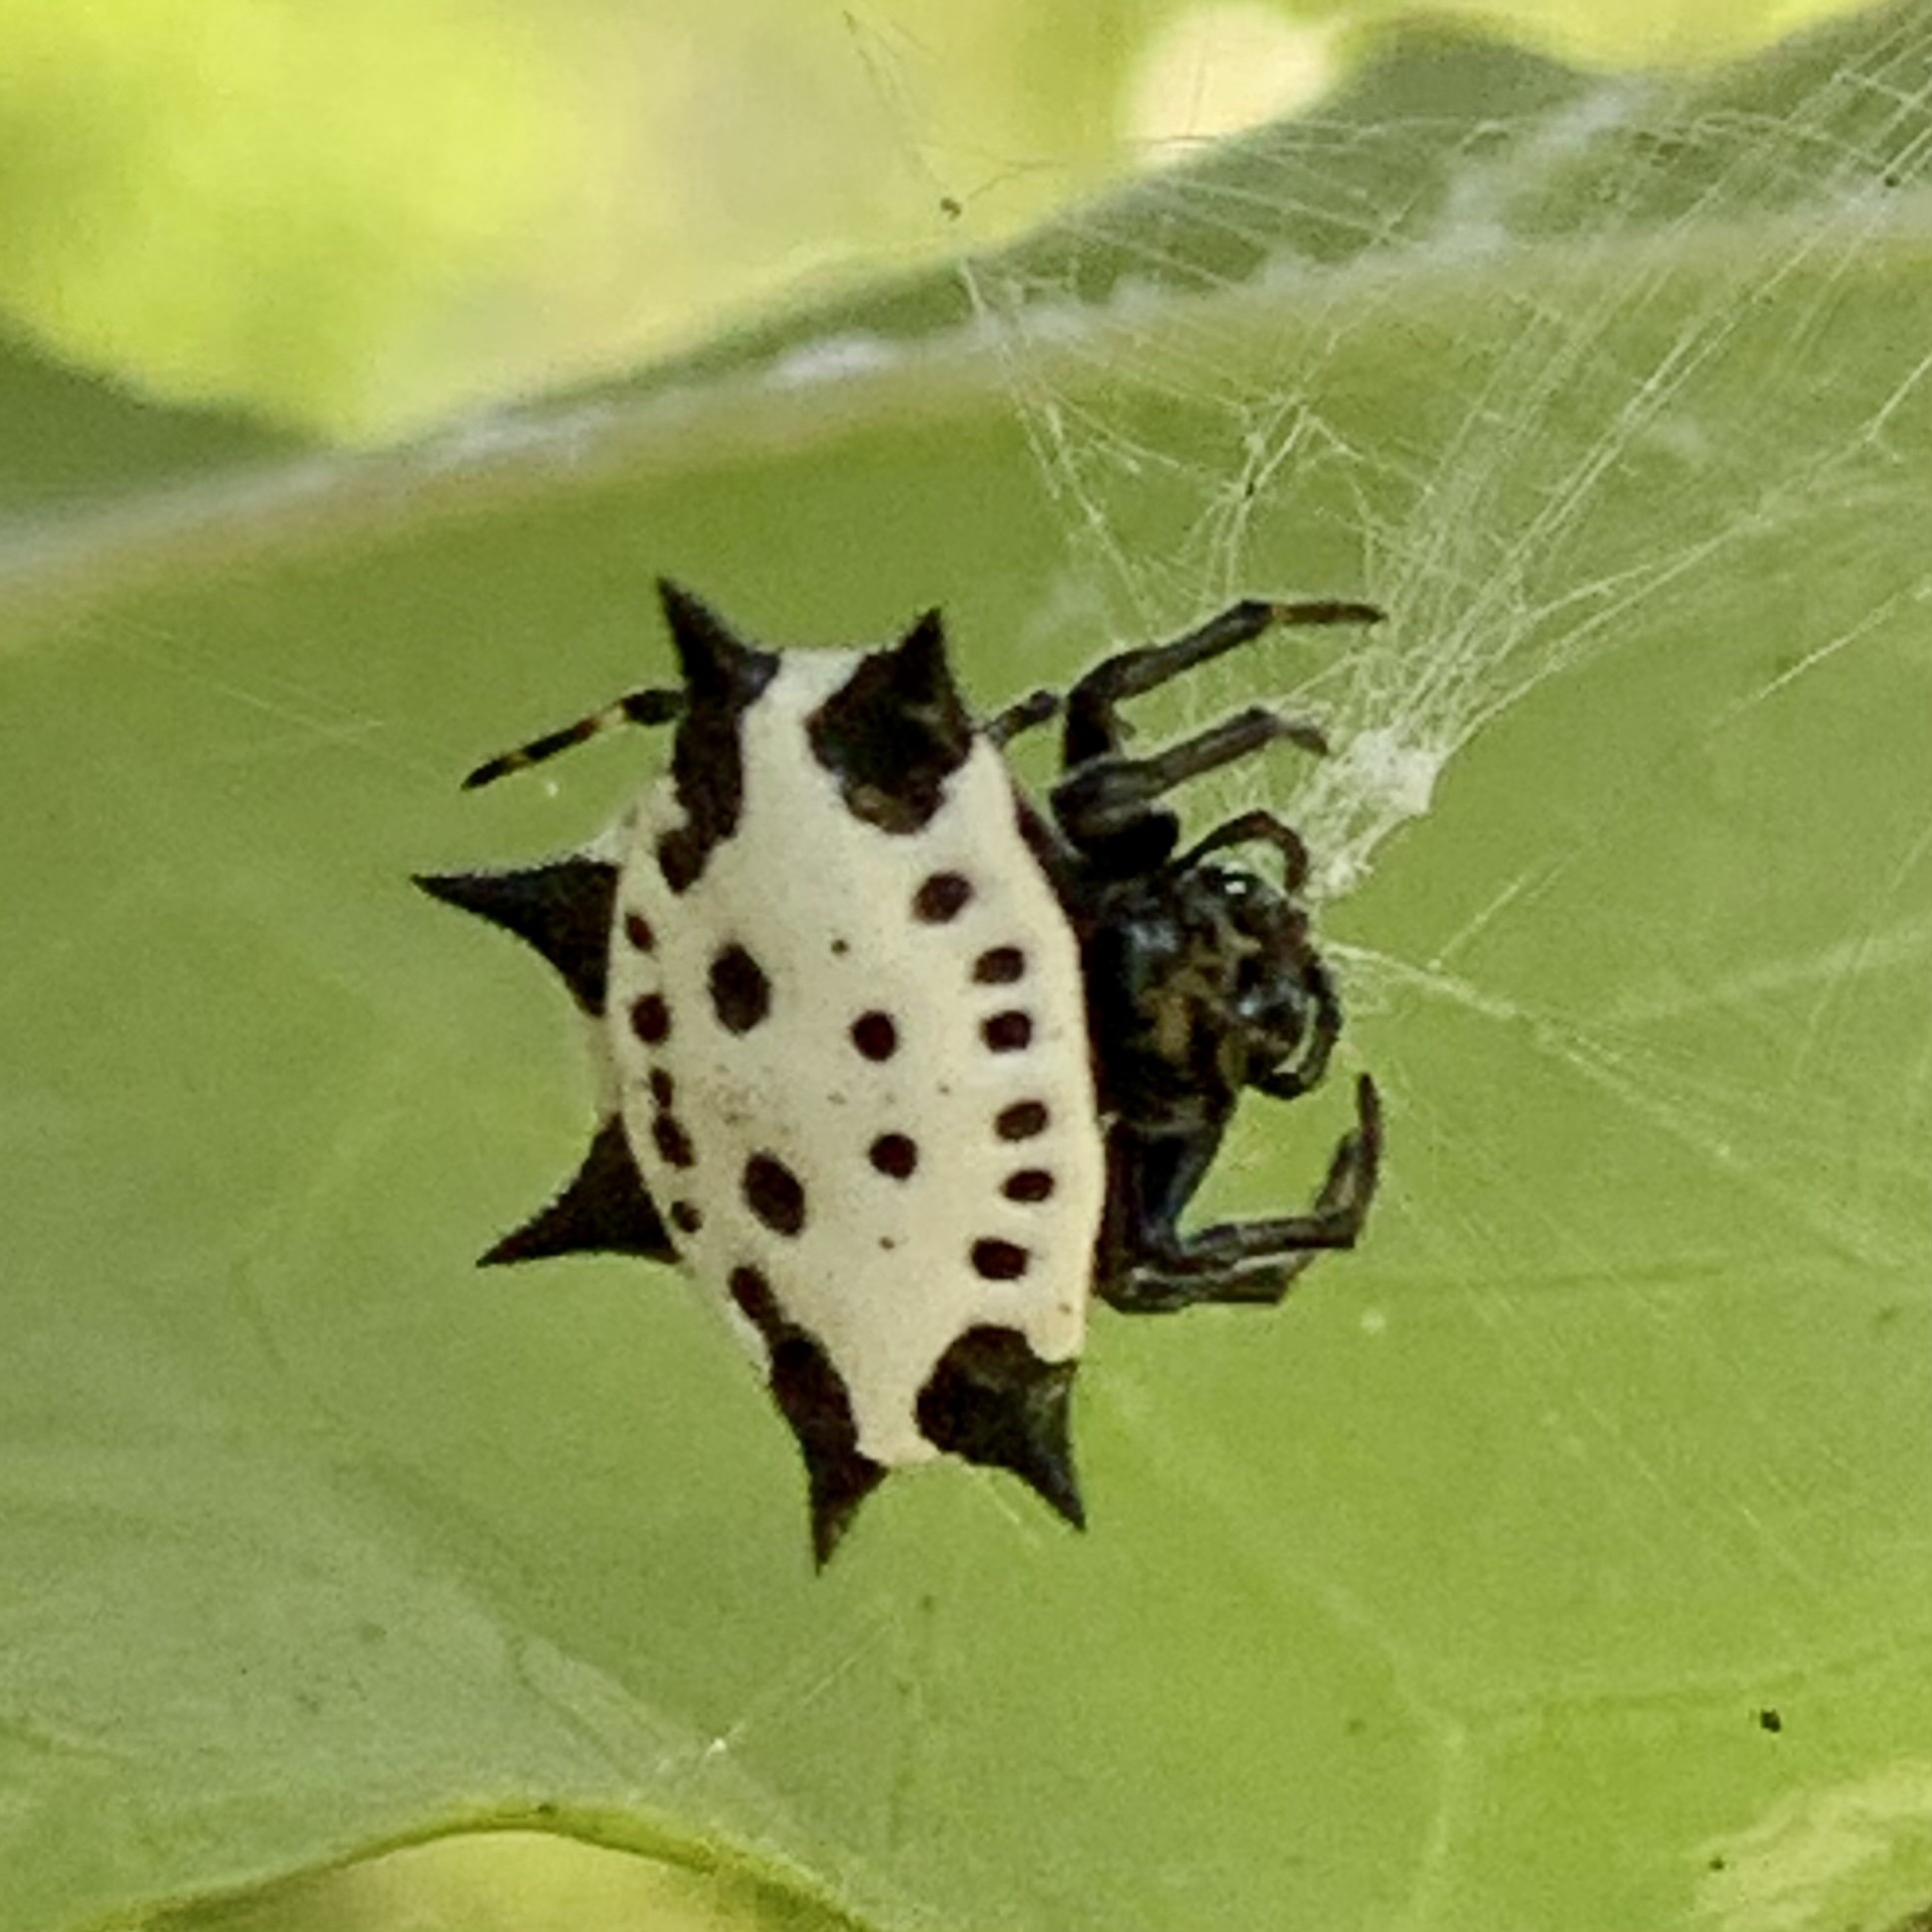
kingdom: Animalia
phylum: Arthropoda
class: Arachnida
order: Araneae
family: Araneidae
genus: Gasteracantha
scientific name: Gasteracantha cancriformis
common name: Orb weavers
